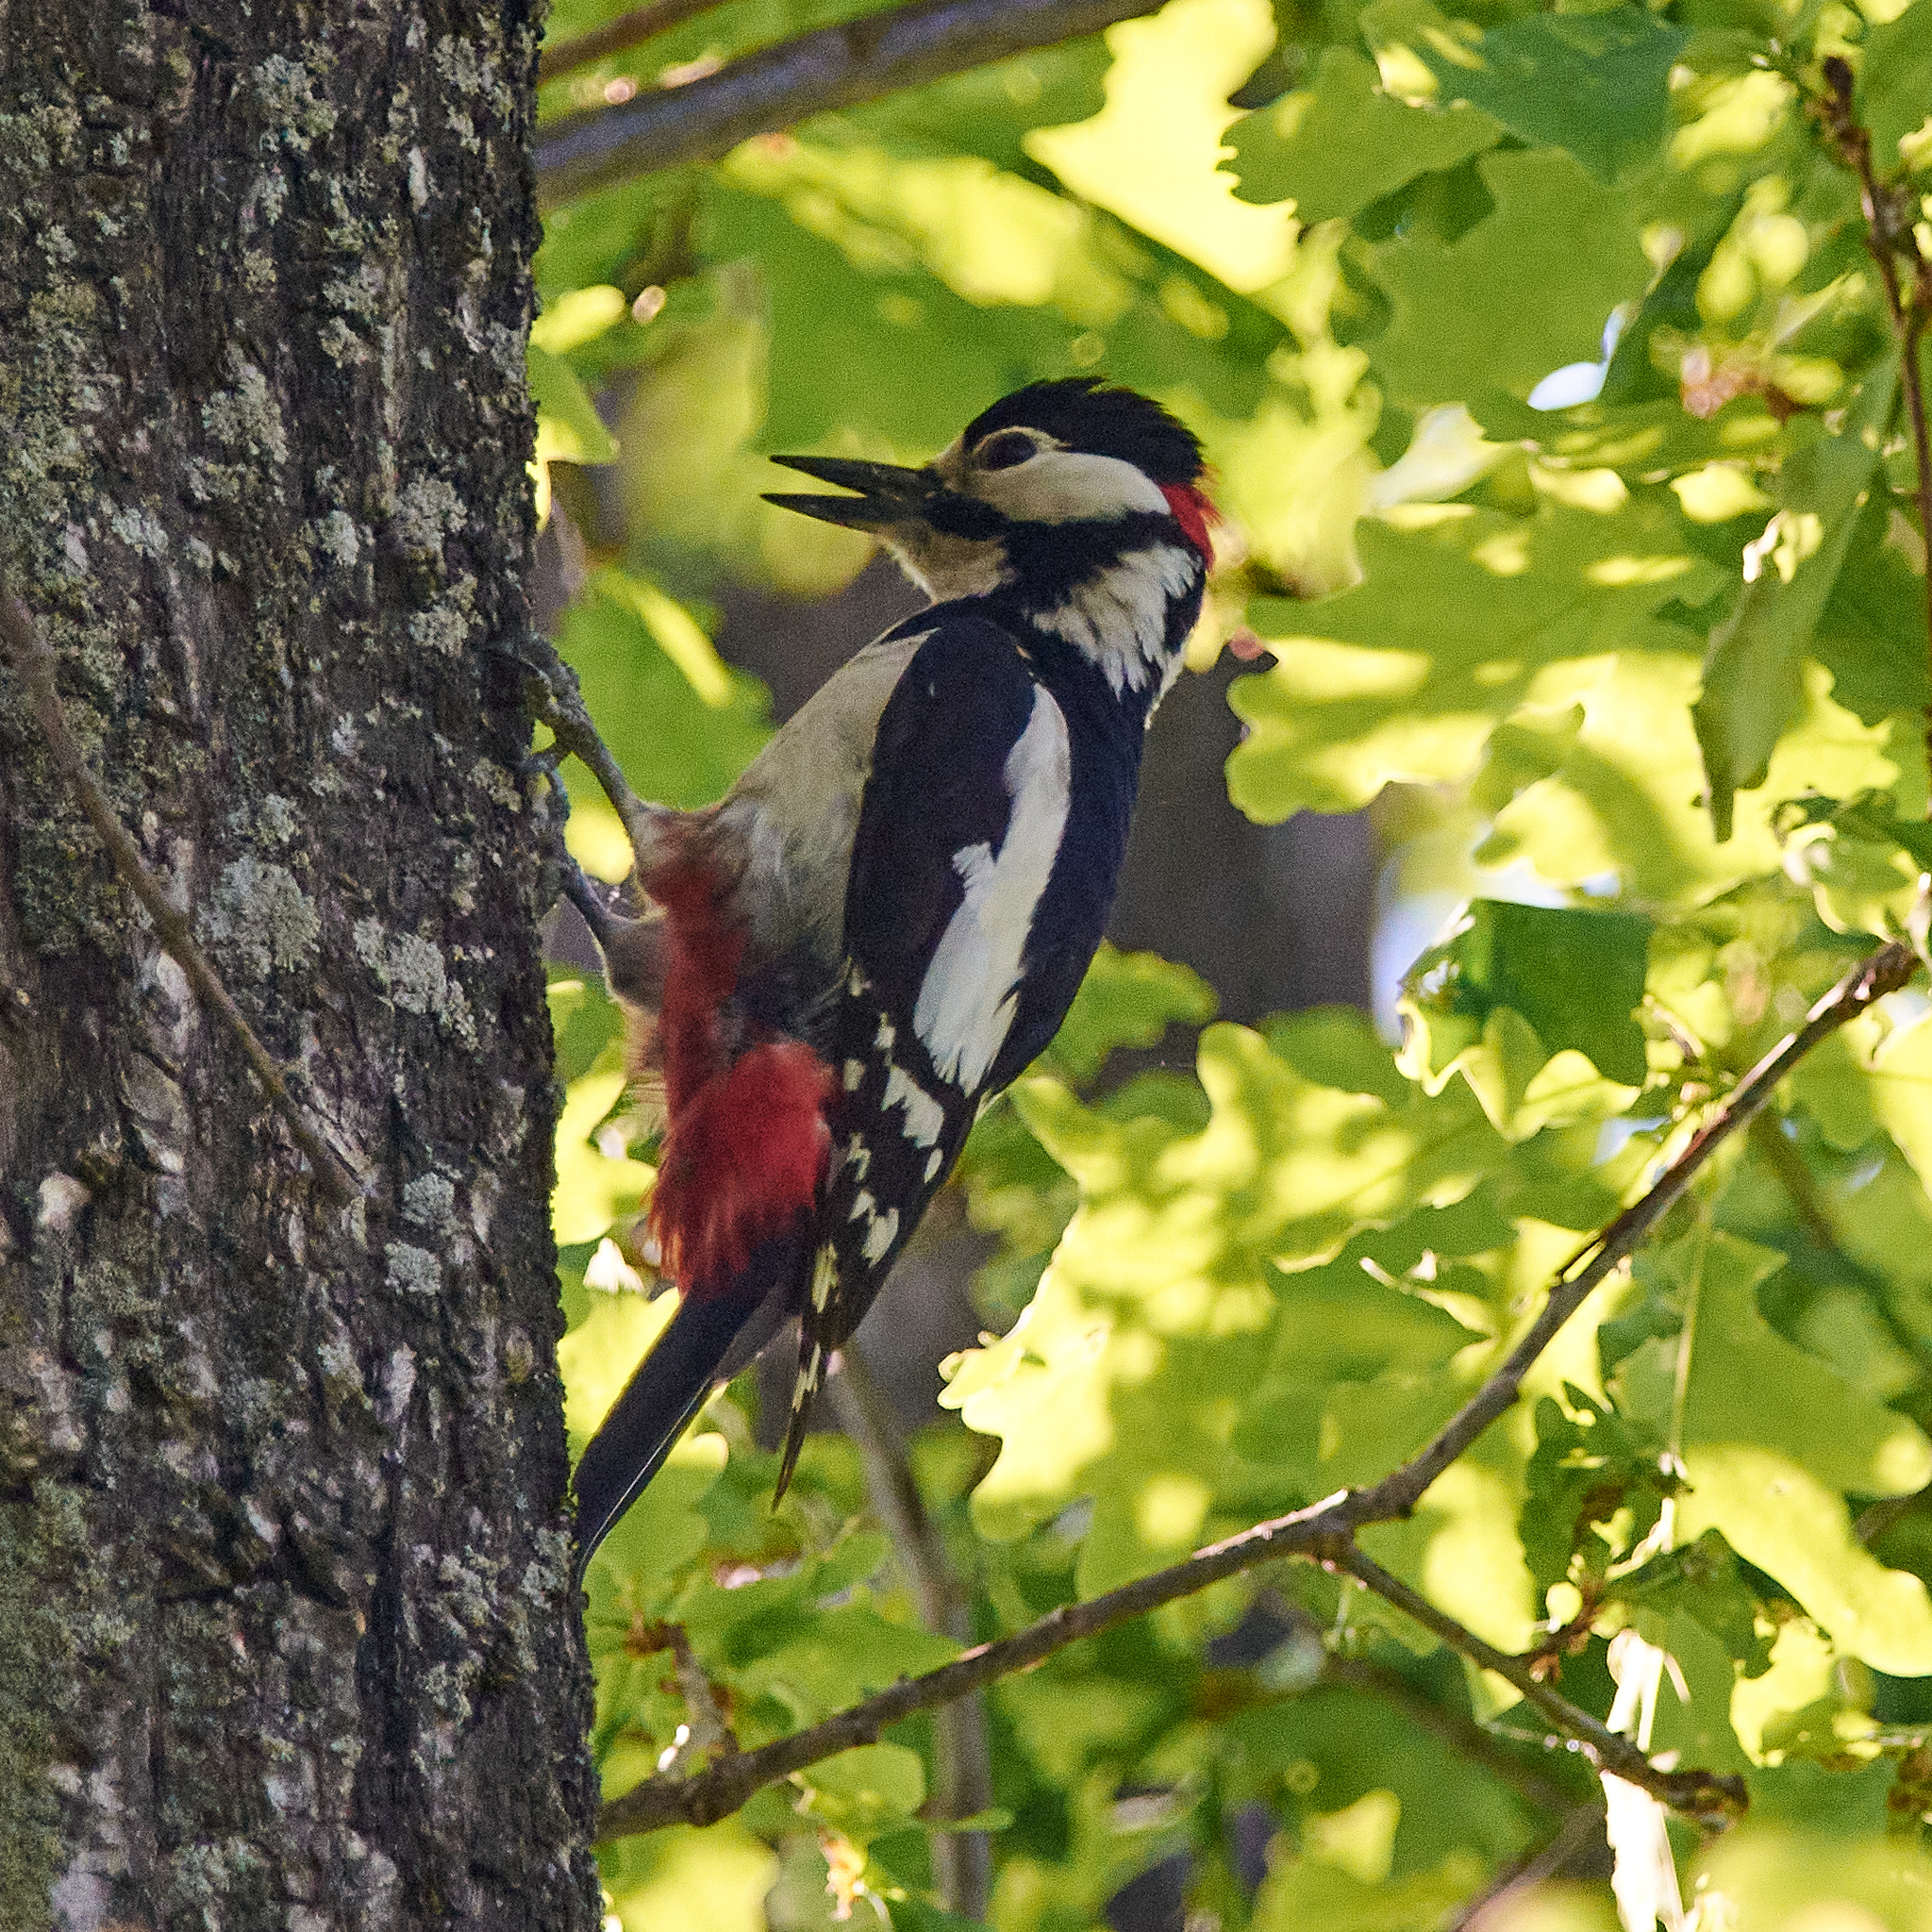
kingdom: Animalia
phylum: Chordata
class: Aves
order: Piciformes
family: Picidae
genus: Dendrocopos
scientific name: Dendrocopos major
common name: Great spotted woodpecker
